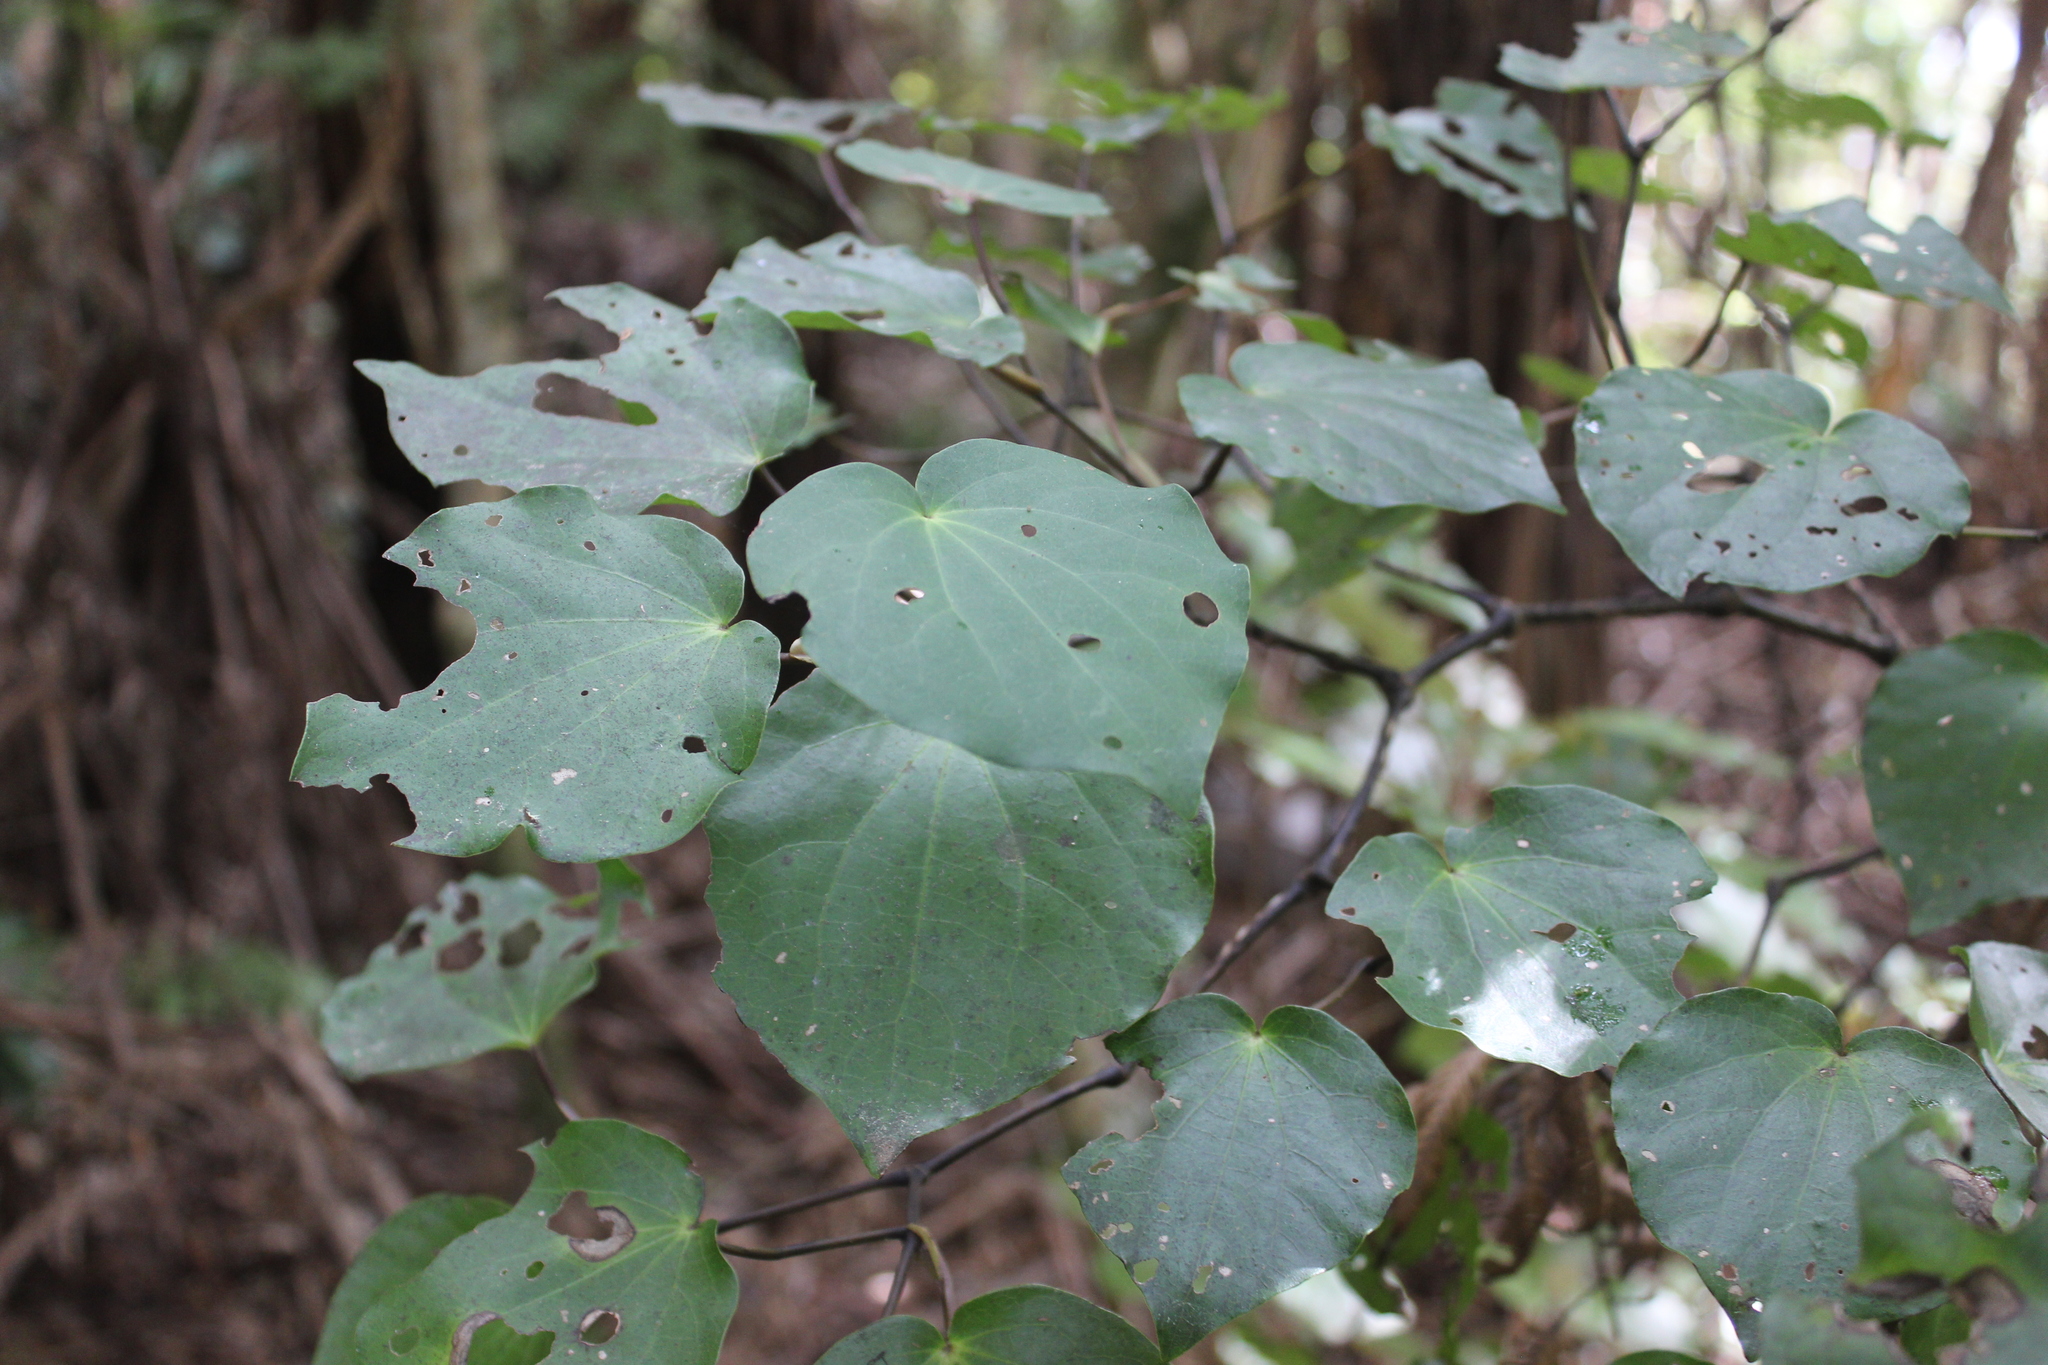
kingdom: Plantae
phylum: Tracheophyta
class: Magnoliopsida
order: Piperales
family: Piperaceae
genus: Macropiper
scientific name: Macropiper excelsum
